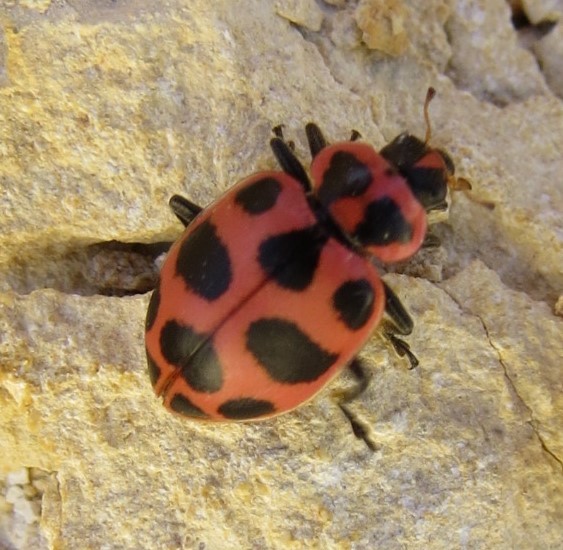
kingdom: Animalia
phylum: Arthropoda
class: Insecta
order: Coleoptera
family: Coccinellidae
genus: Coleomegilla
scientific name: Coleomegilla maculata
